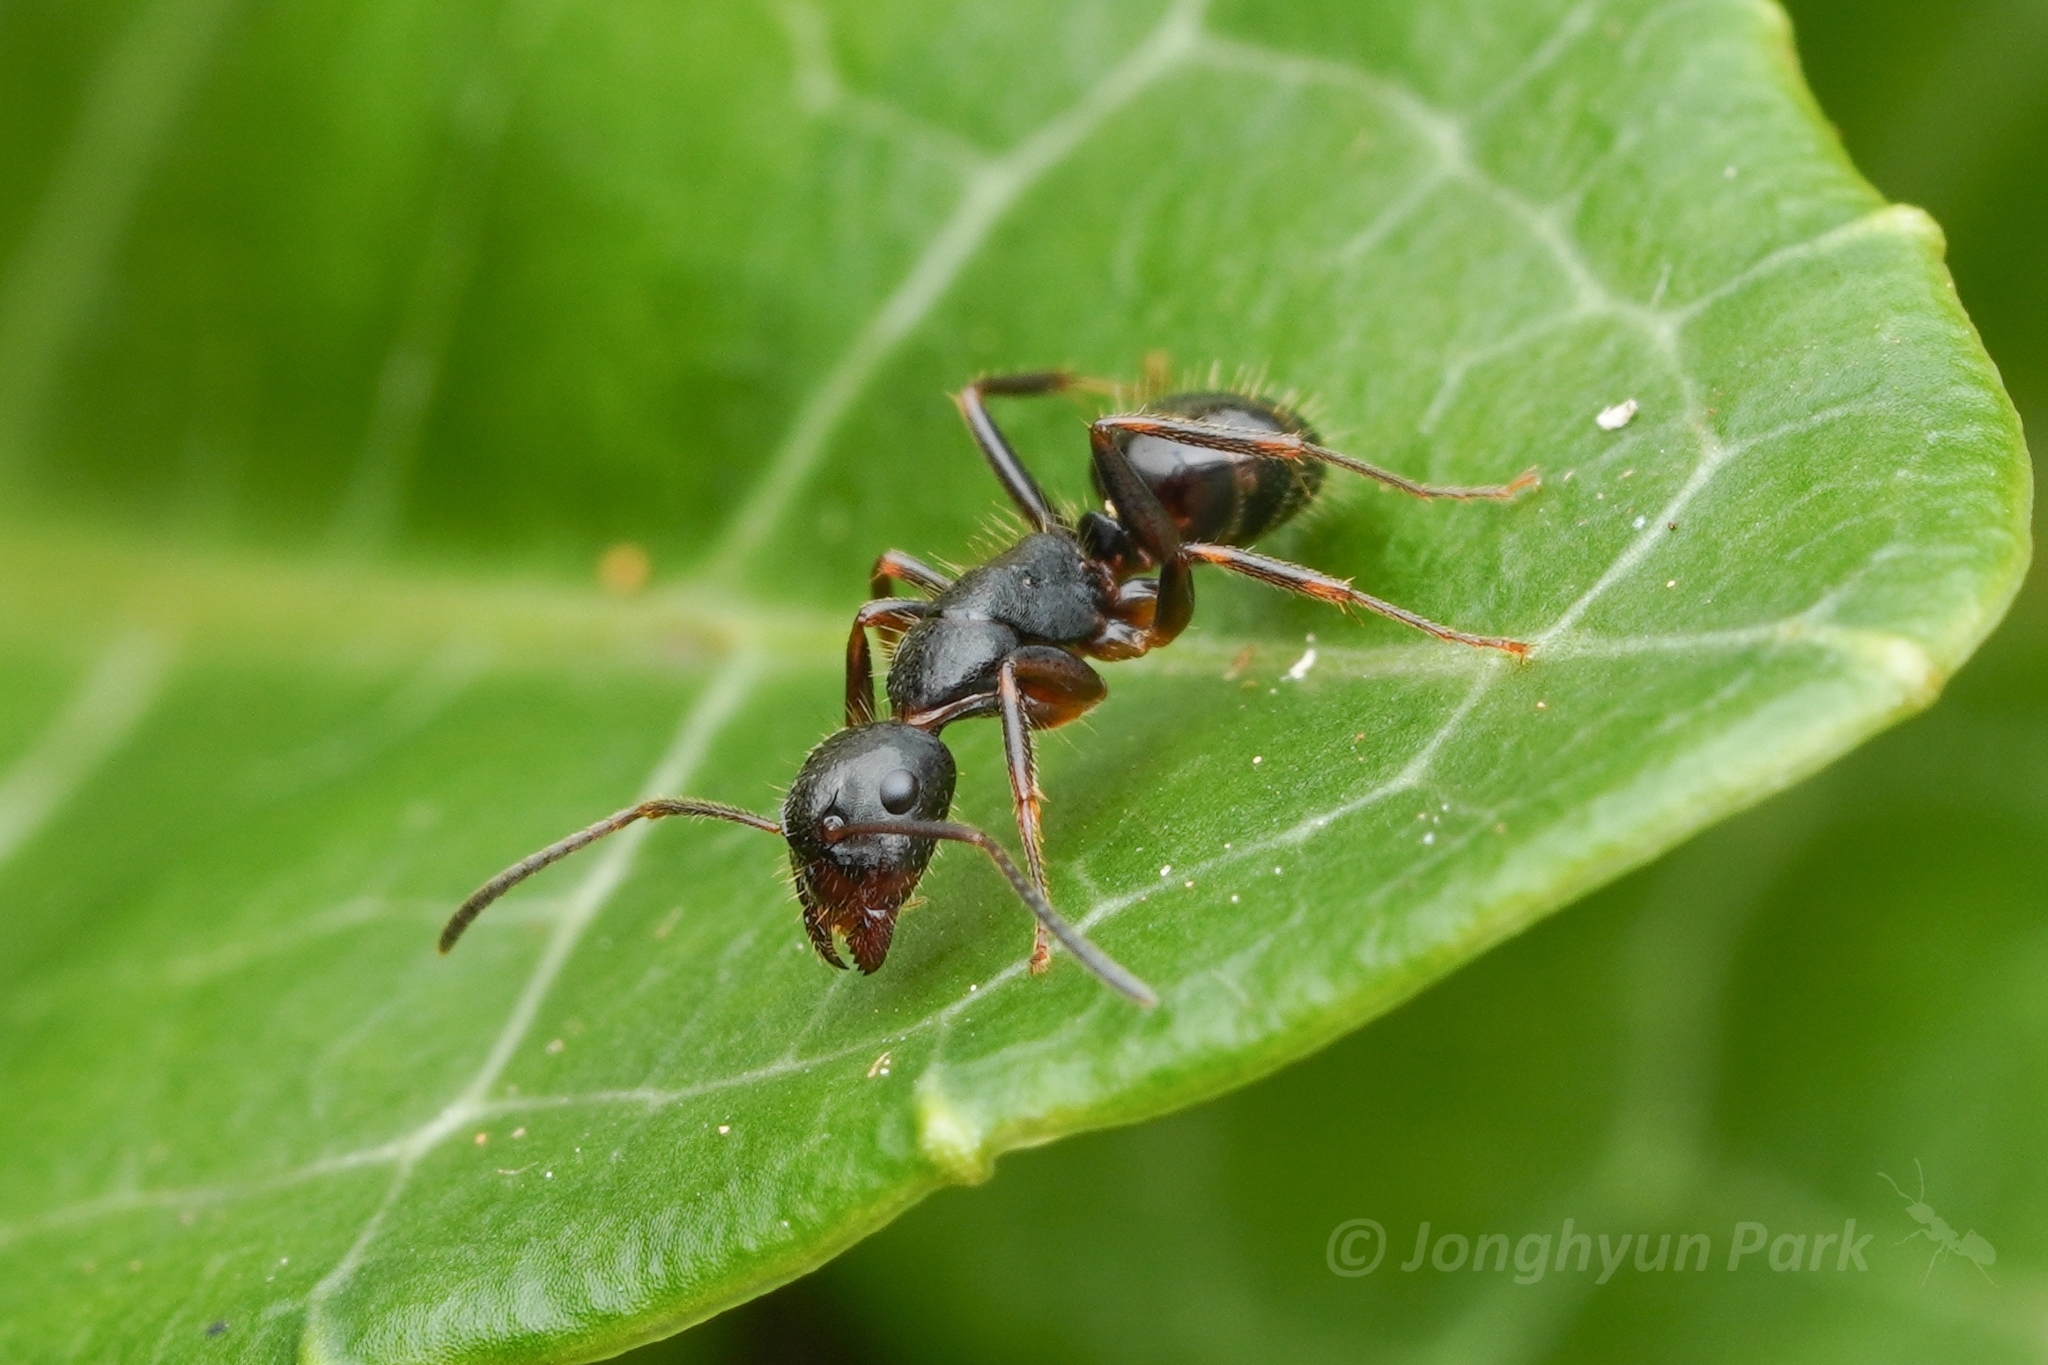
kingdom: Animalia
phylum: Arthropoda
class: Insecta
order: Hymenoptera
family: Formicidae
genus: Camponotus
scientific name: Camponotus nipponensis
